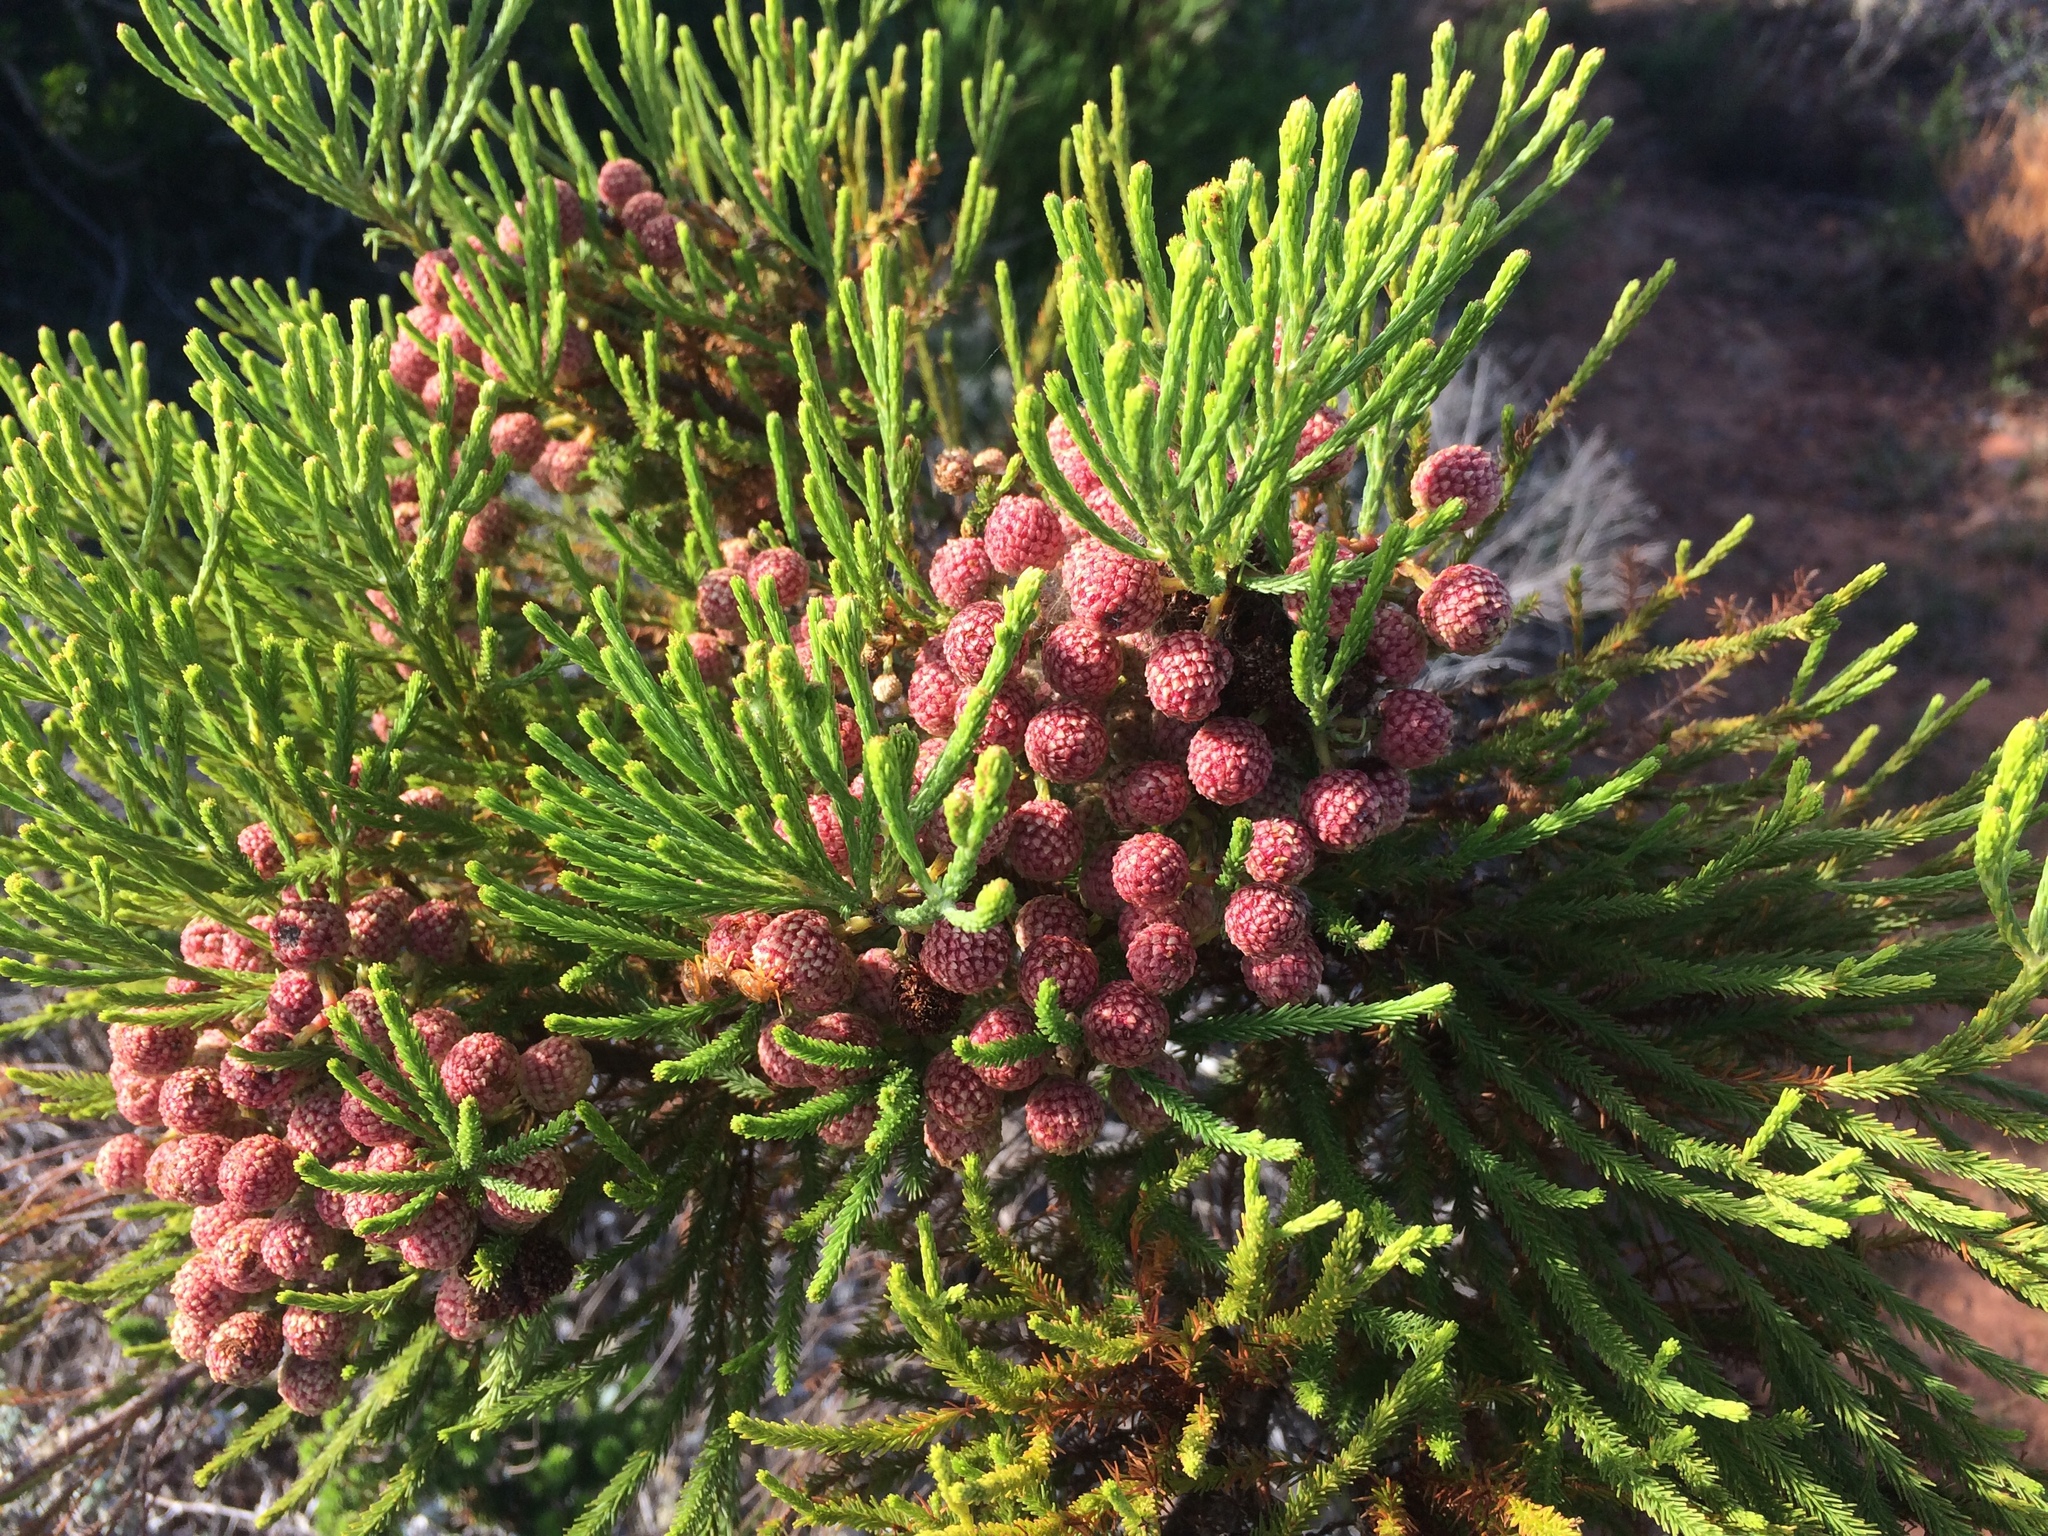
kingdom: Plantae
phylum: Tracheophyta
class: Magnoliopsida
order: Bruniales
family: Bruniaceae
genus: Berzelia
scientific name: Berzelia lanuginosa
